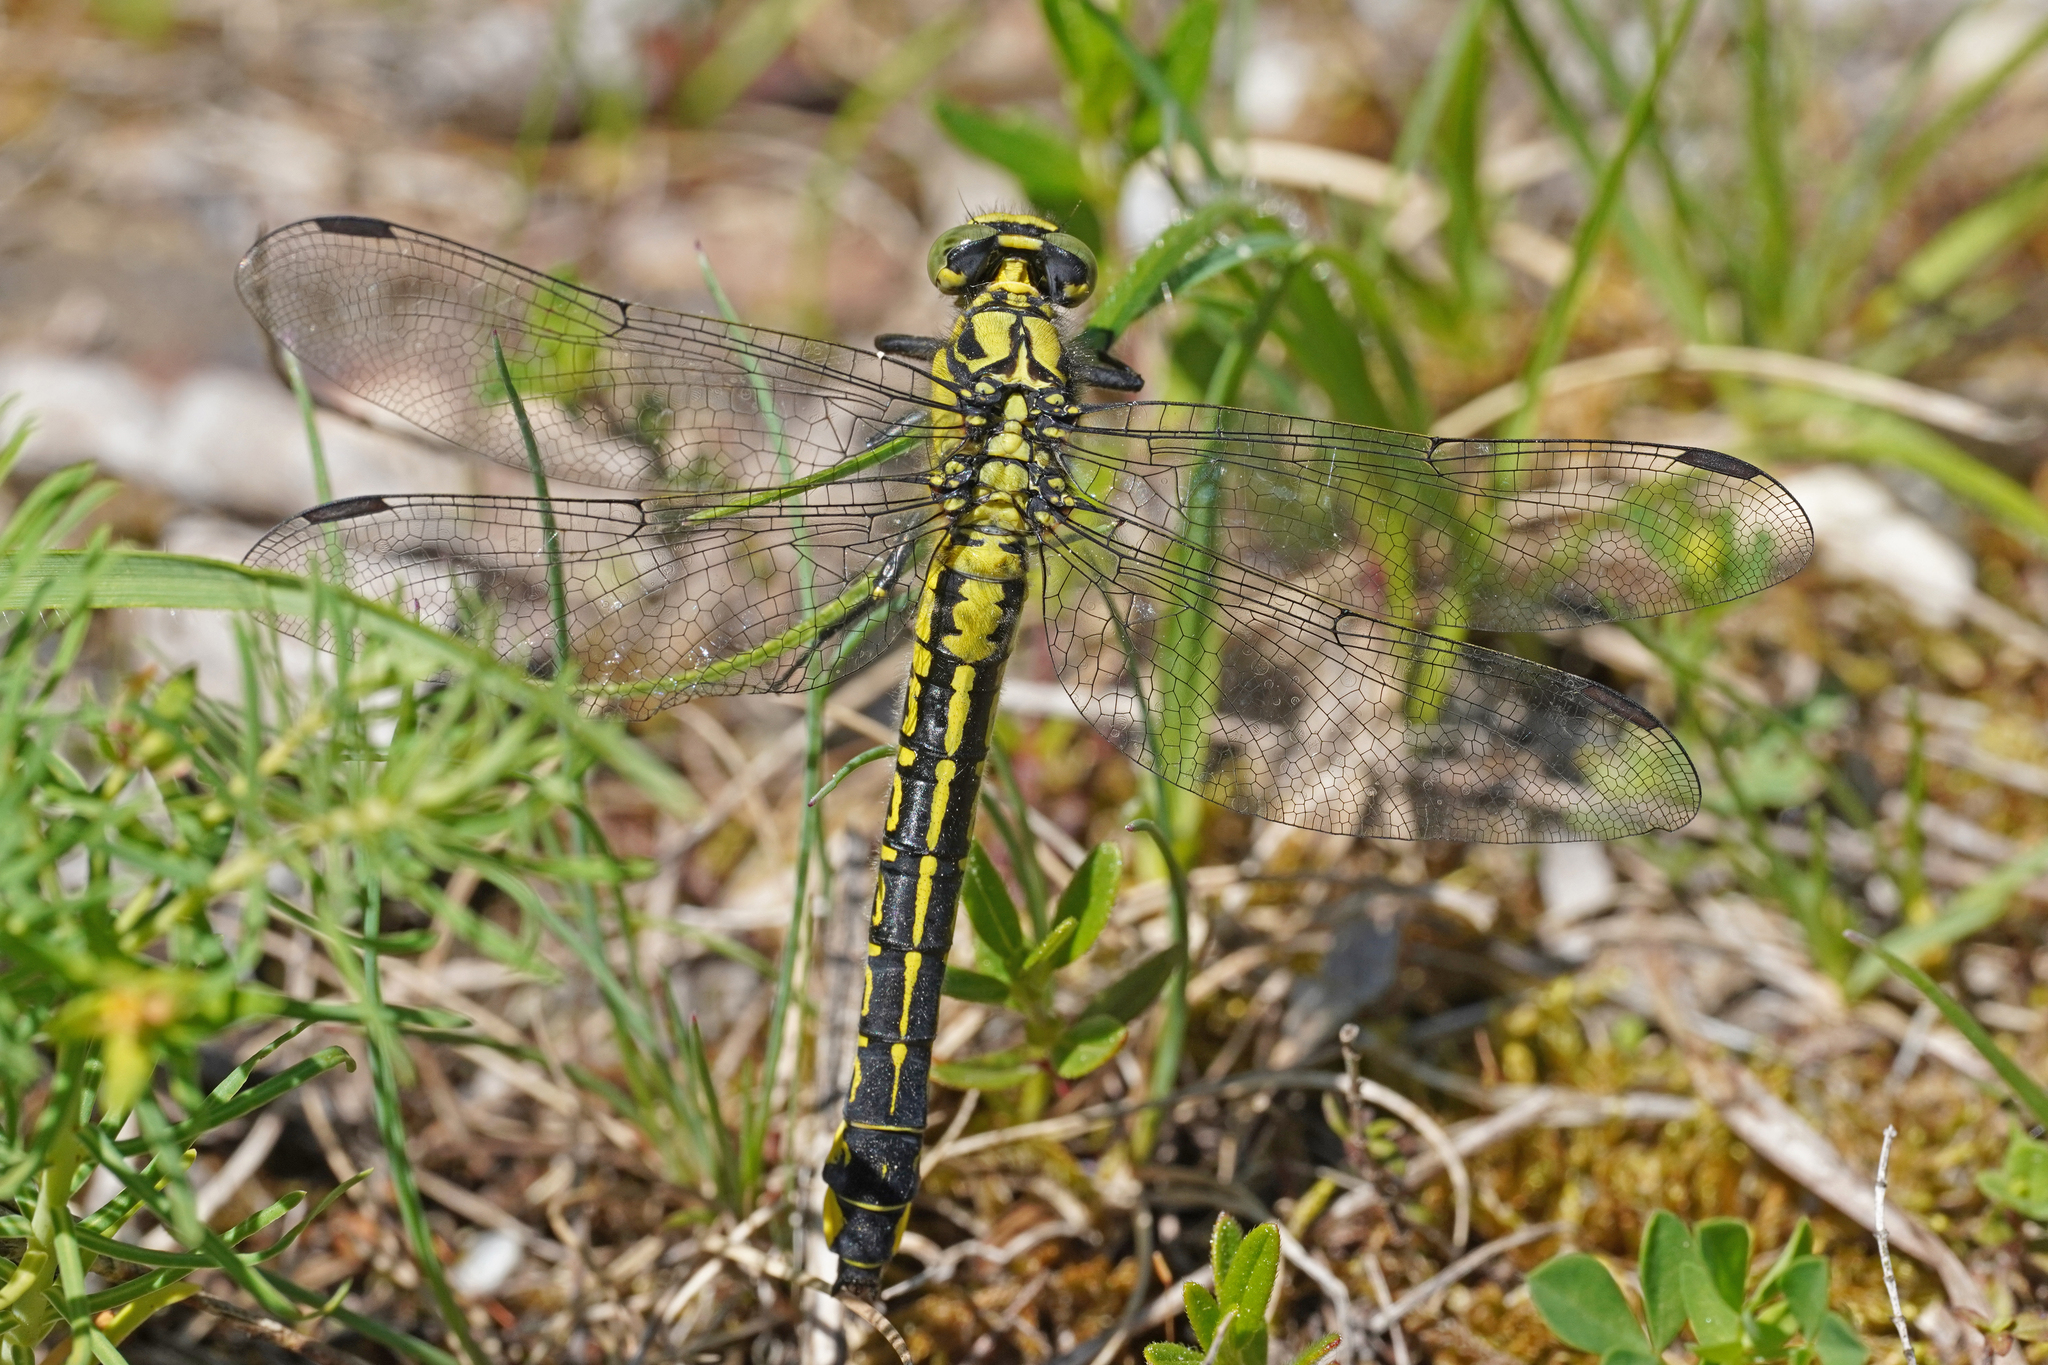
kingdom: Animalia
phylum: Arthropoda
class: Insecta
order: Odonata
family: Gomphidae
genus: Gomphus
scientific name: Gomphus vulgatissimus
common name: Club-tailed dragonfly
